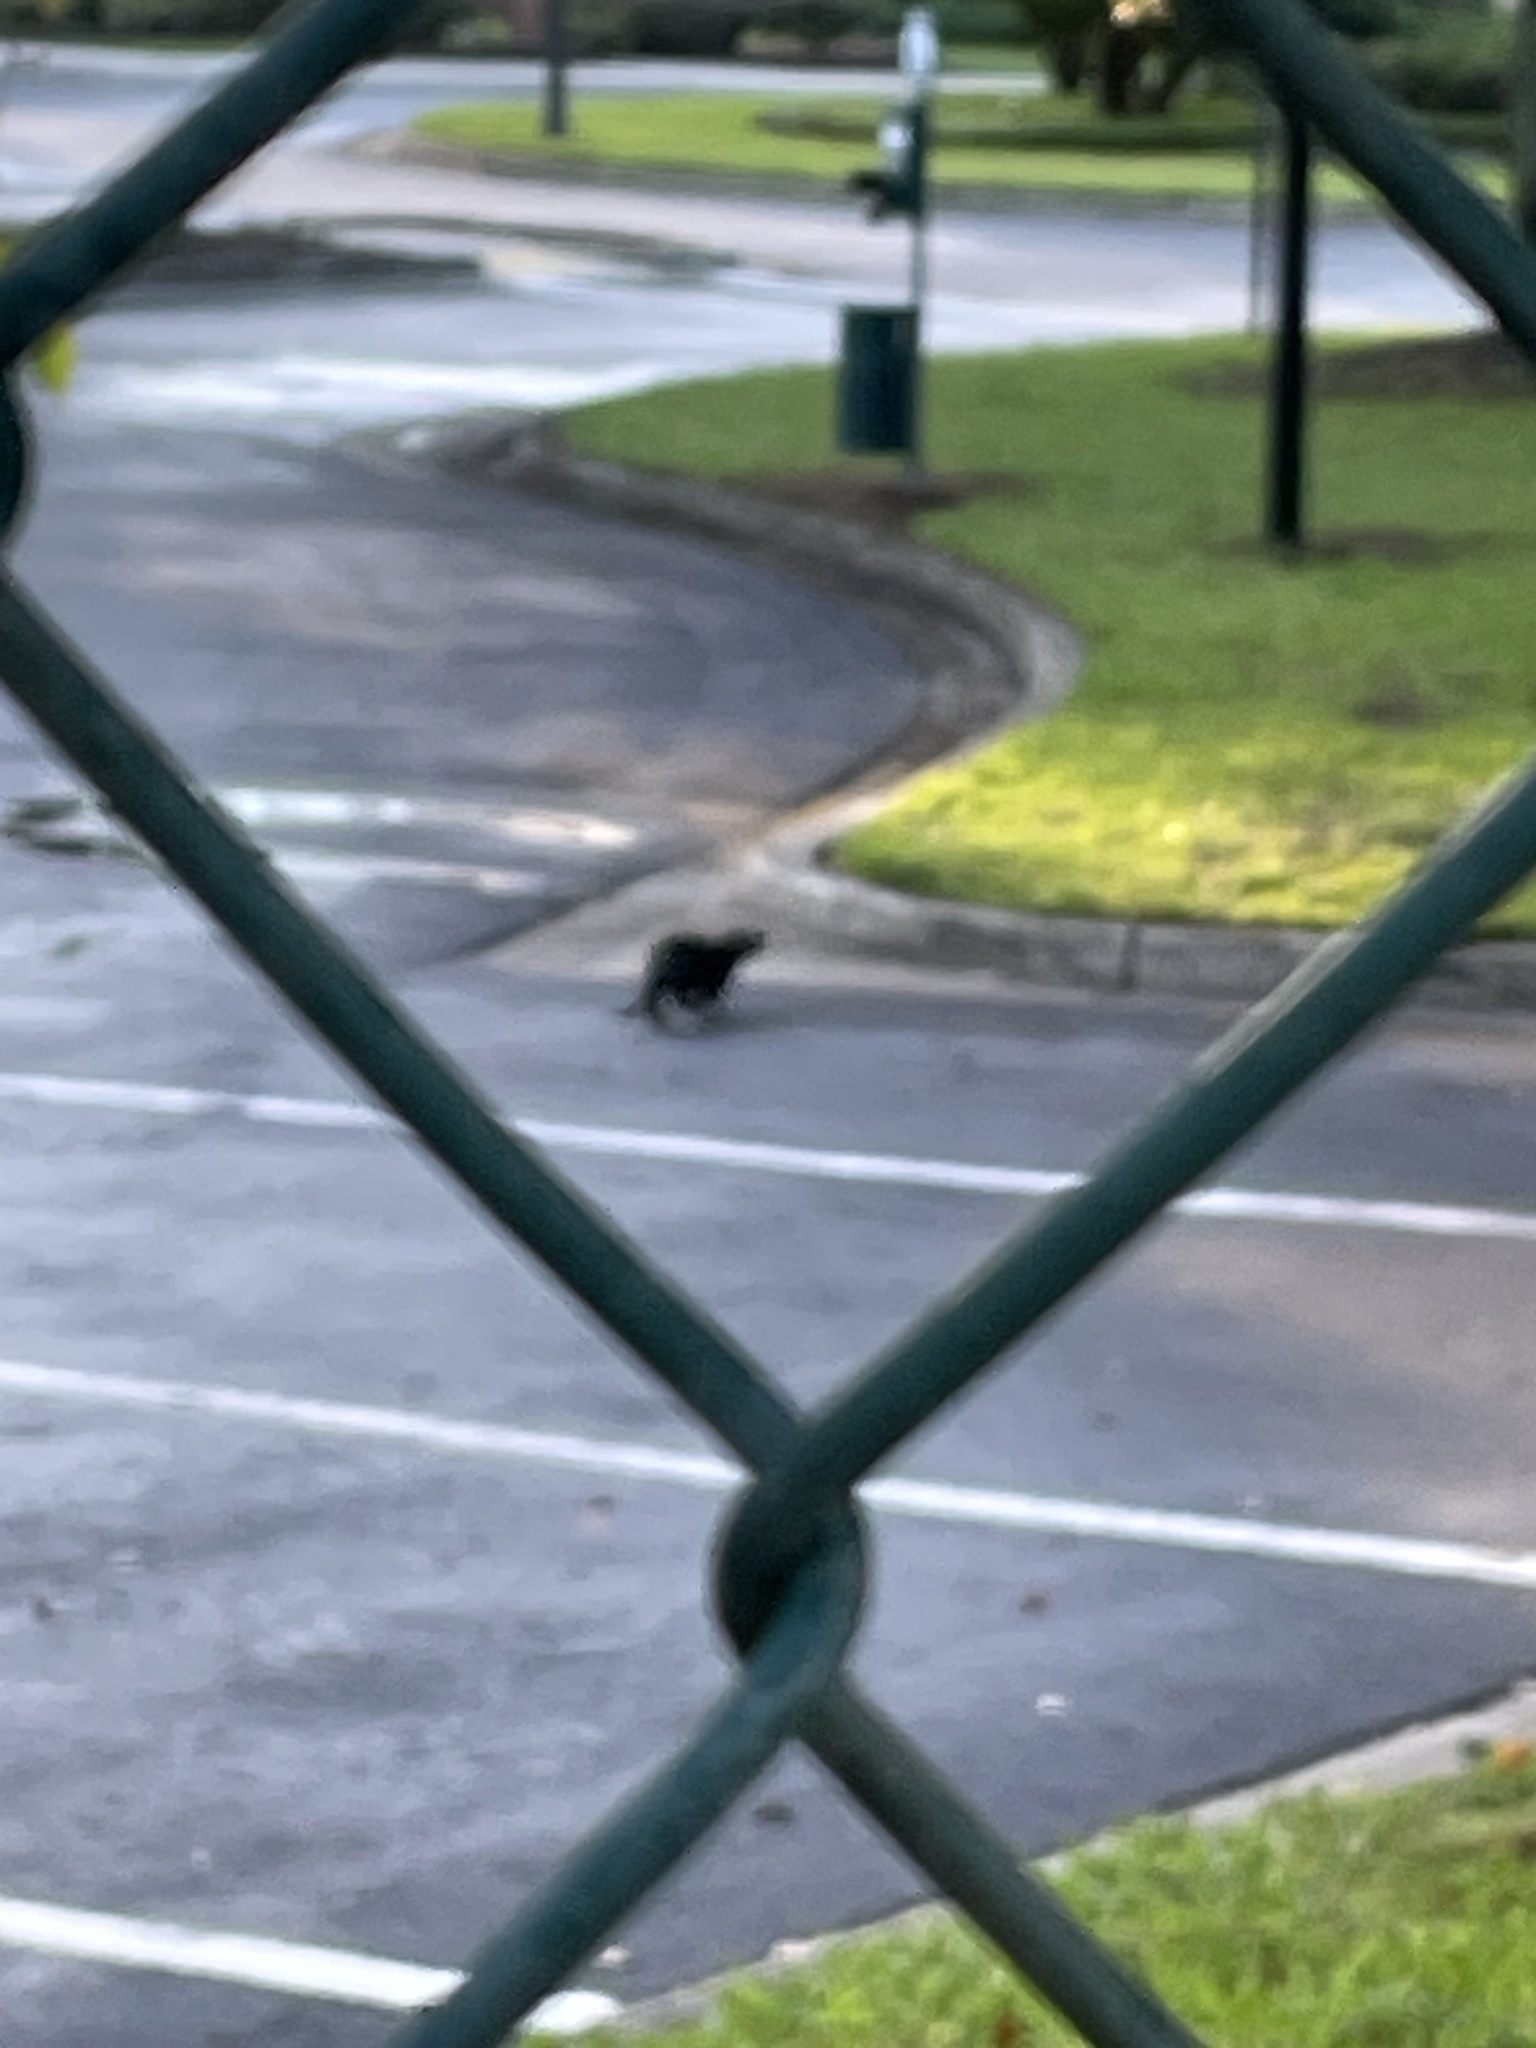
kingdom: Animalia
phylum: Chordata
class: Mammalia
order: Carnivora
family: Mustelidae
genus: Lontra
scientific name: Lontra canadensis
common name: North american river otter
